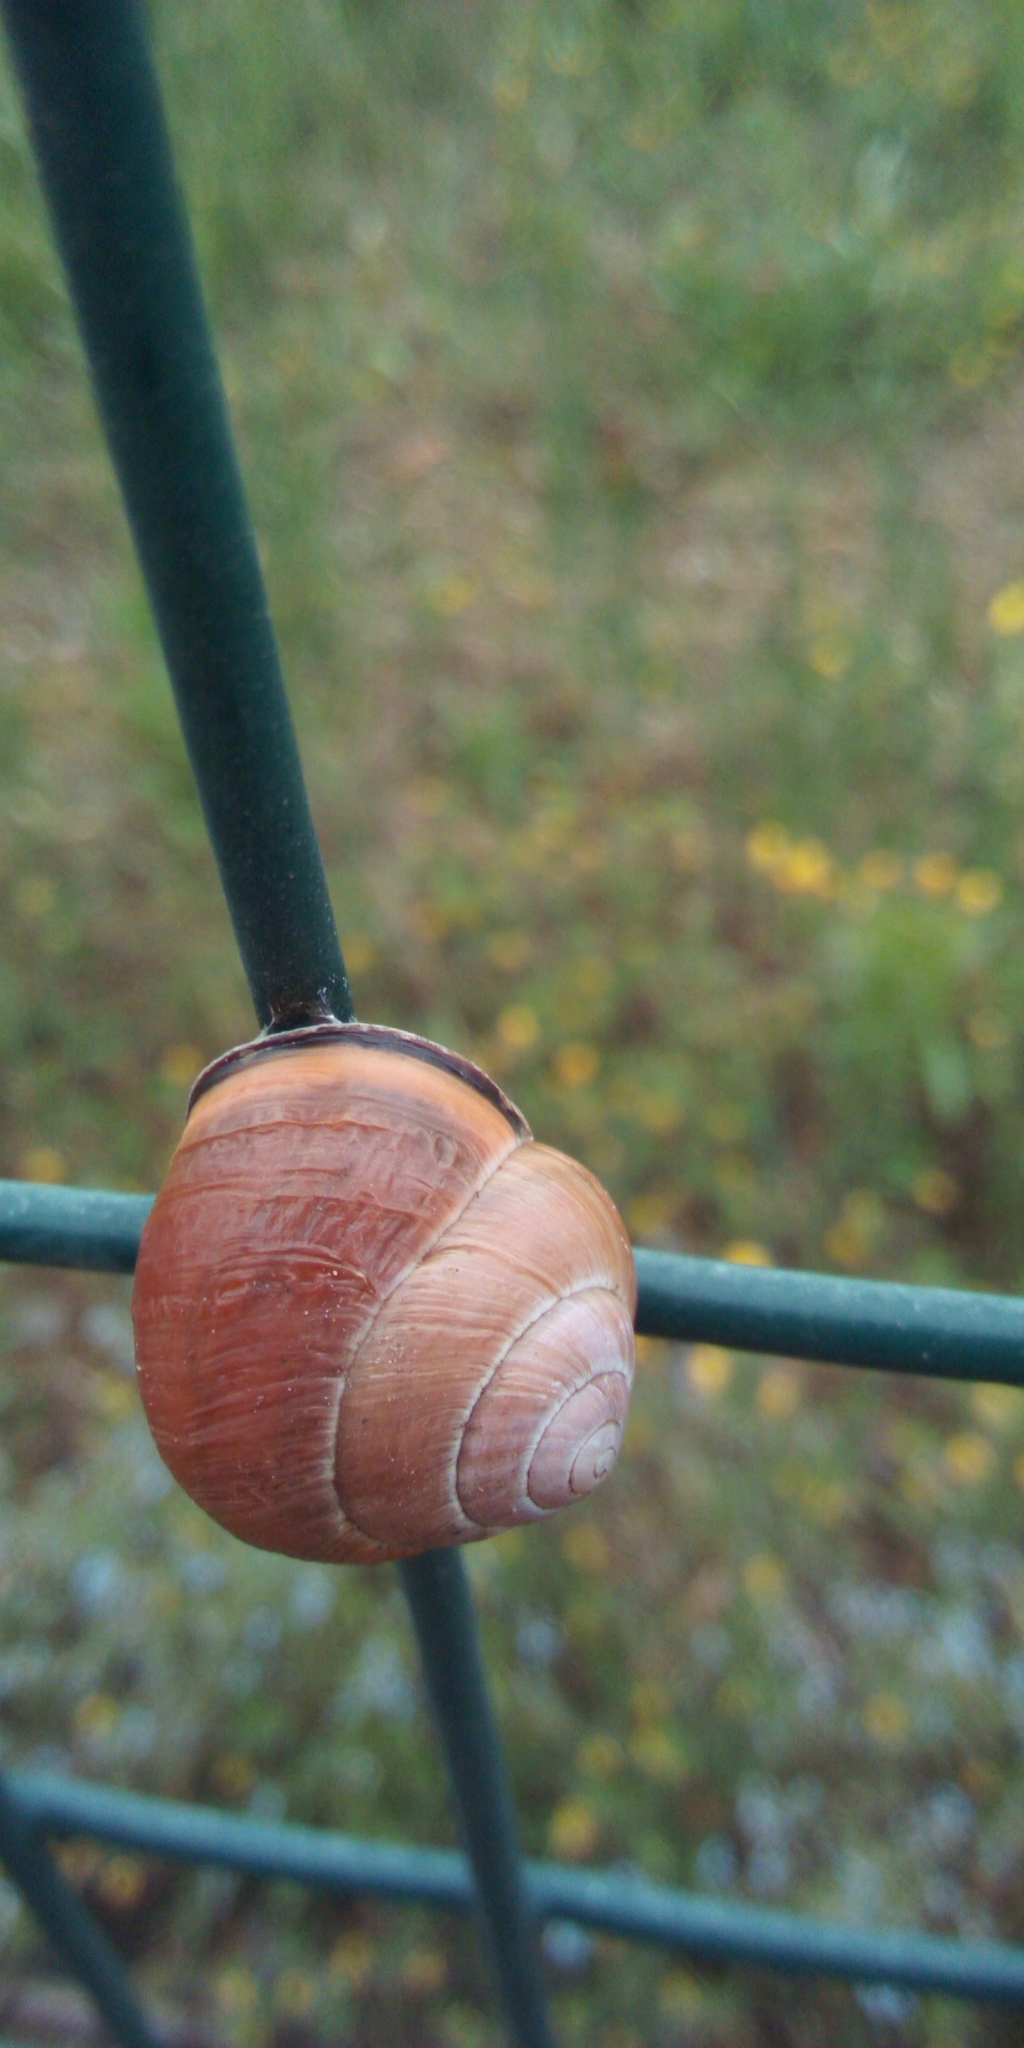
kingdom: Animalia
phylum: Mollusca
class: Gastropoda
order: Stylommatophora
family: Helicidae
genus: Cepaea
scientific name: Cepaea nemoralis
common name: Grovesnail
